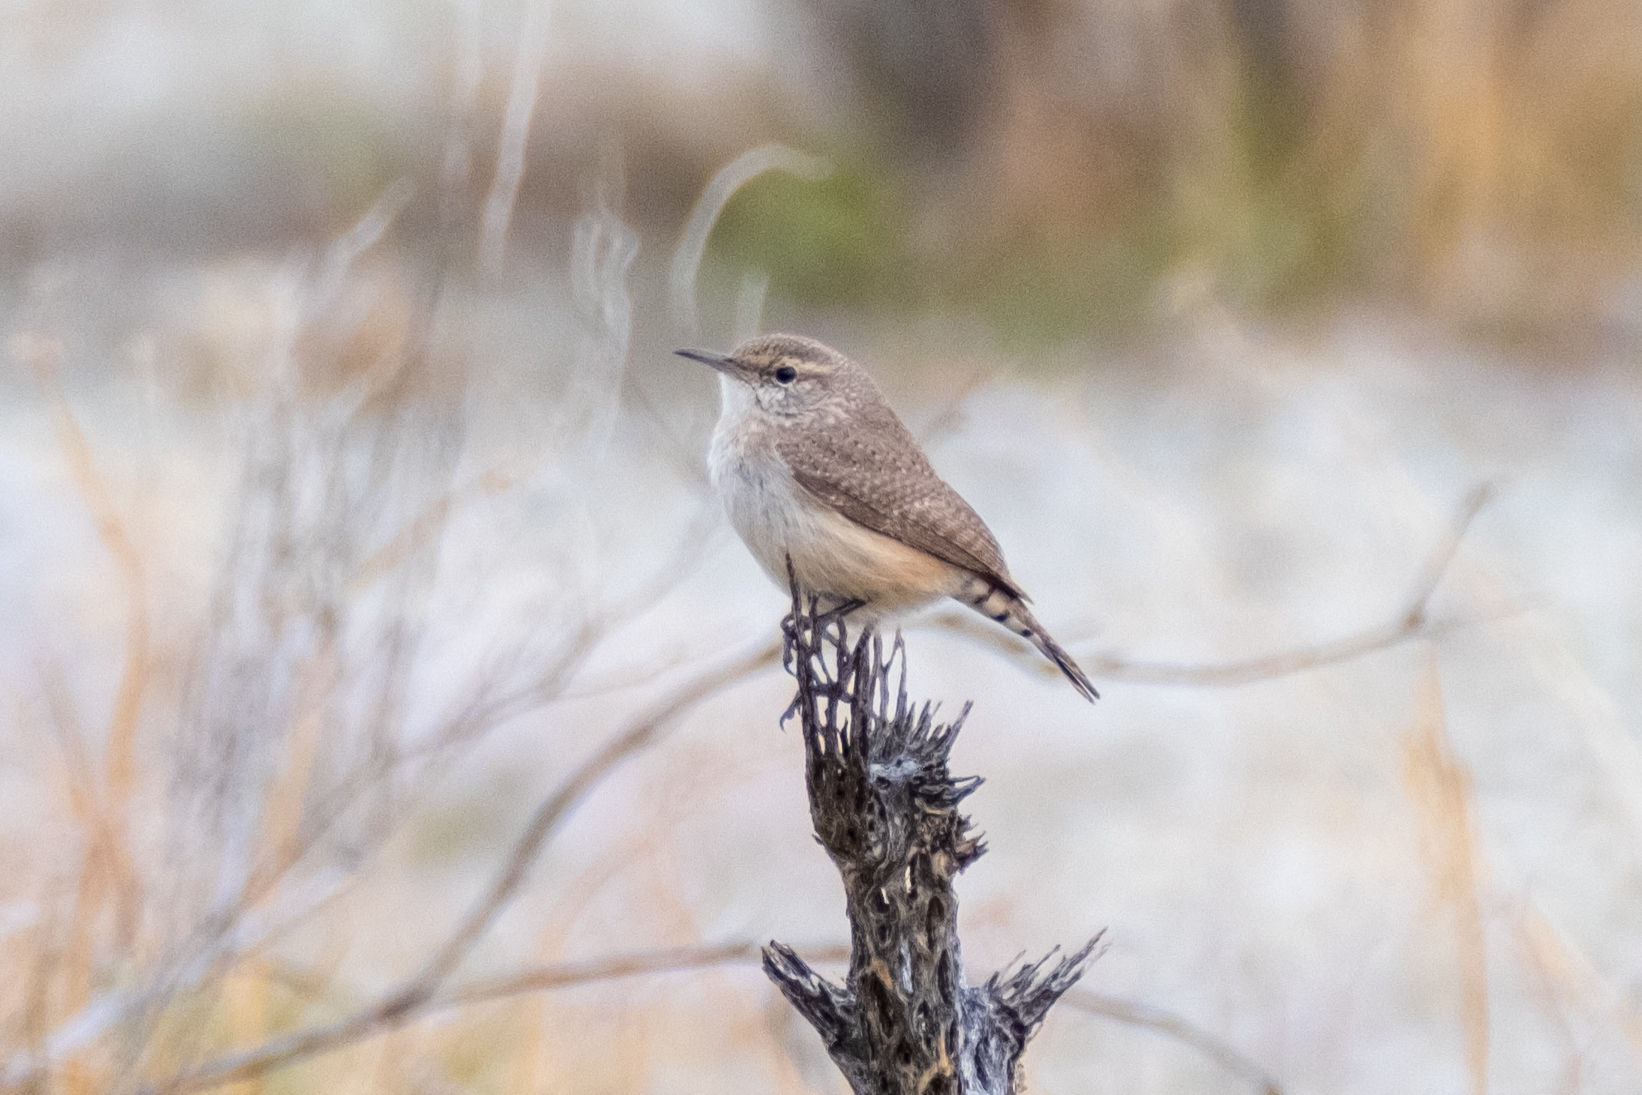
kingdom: Animalia
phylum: Chordata
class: Aves
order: Passeriformes
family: Troglodytidae
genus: Salpinctes
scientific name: Salpinctes obsoletus
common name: Rock wren
